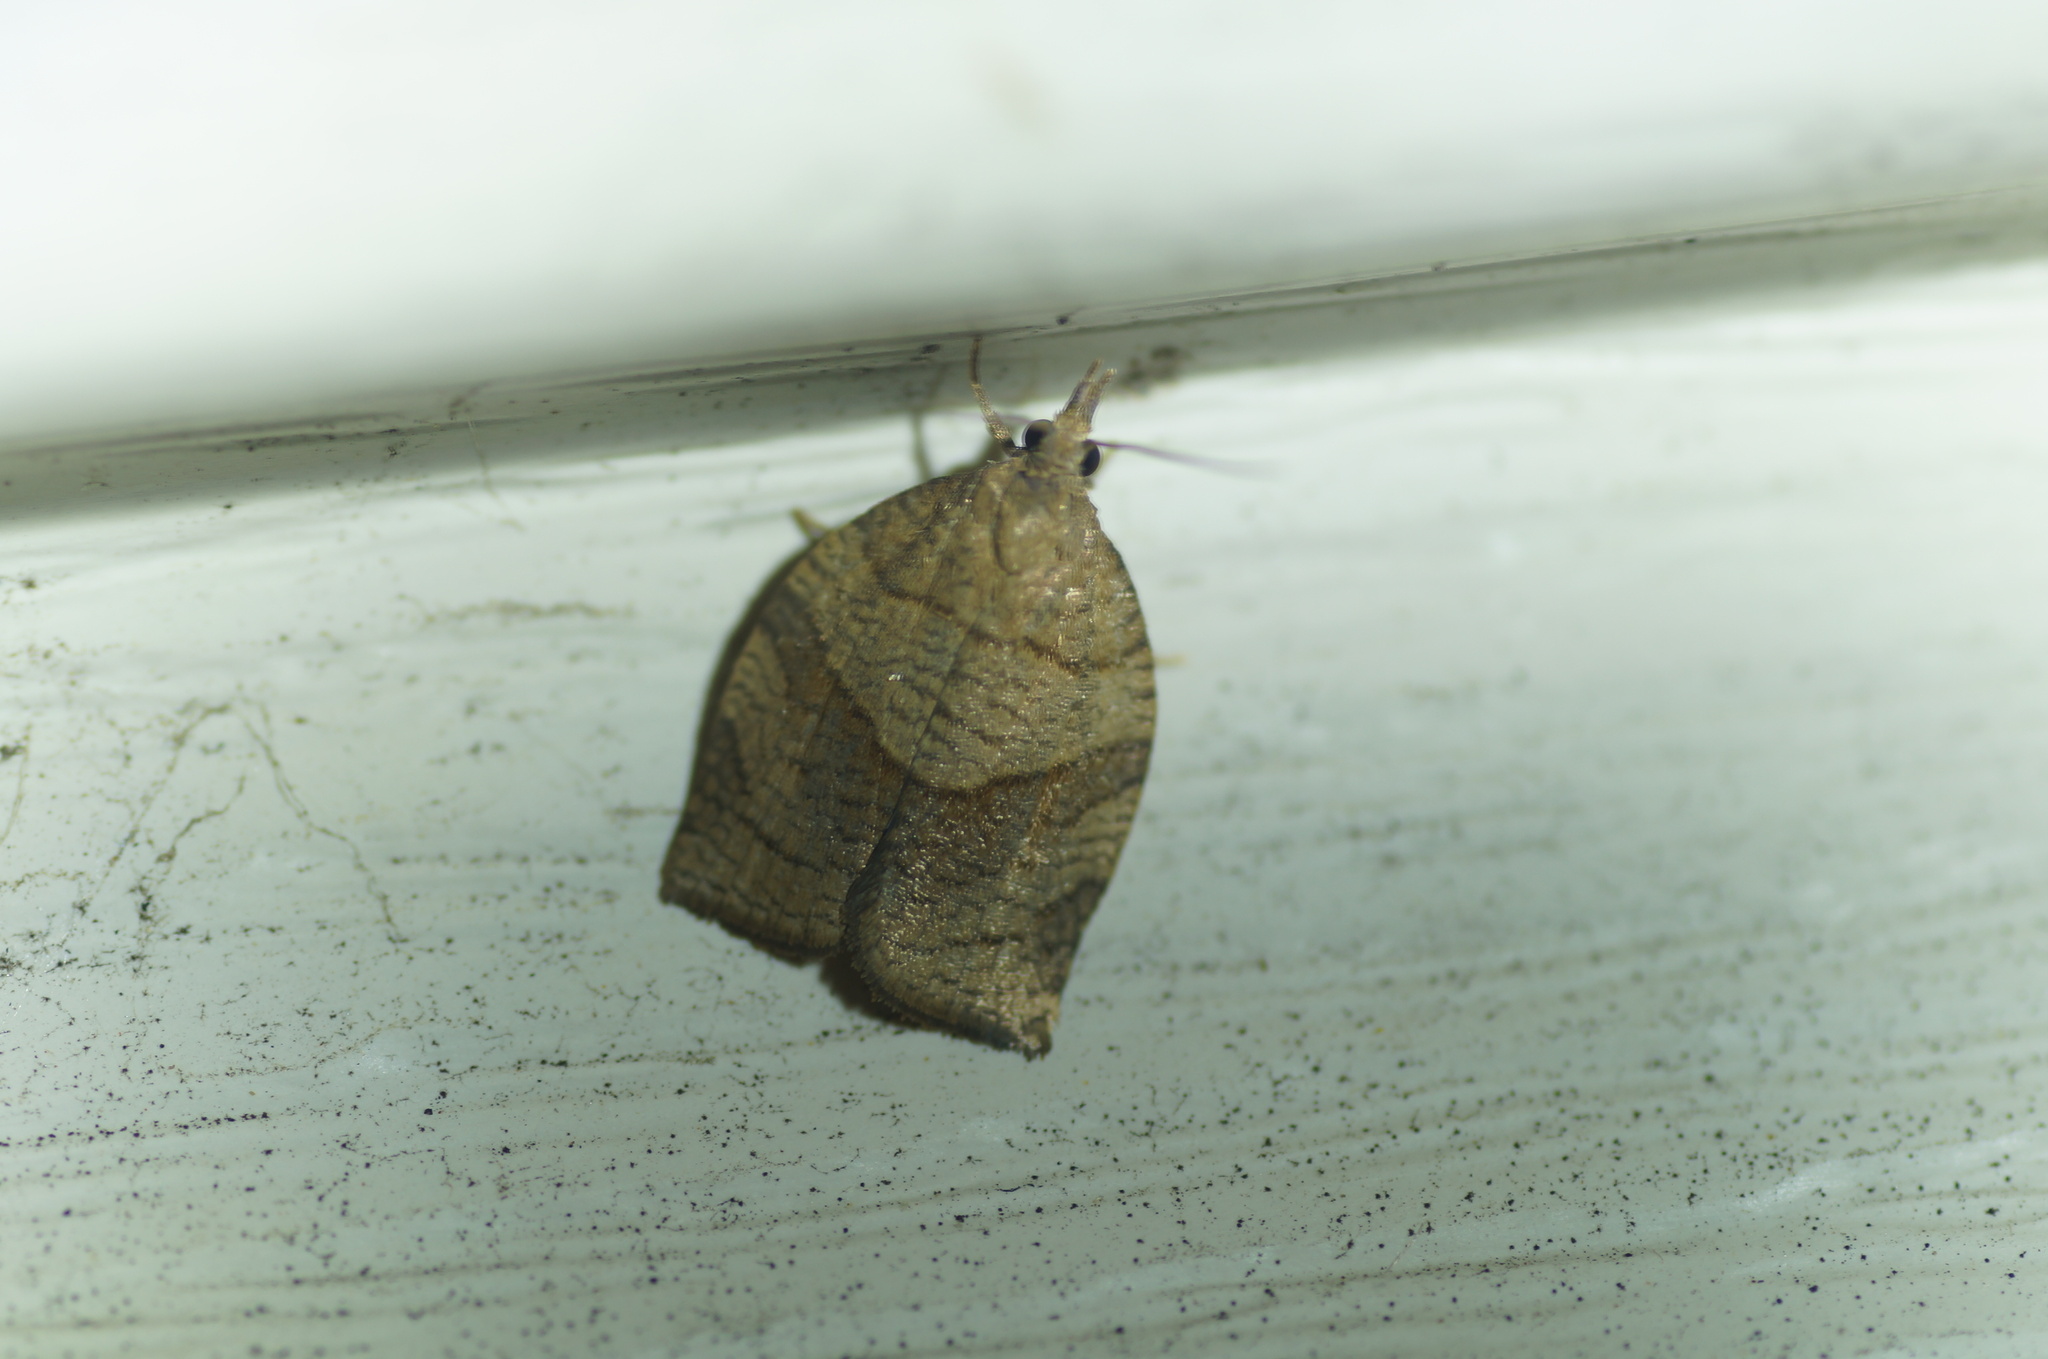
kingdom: Animalia
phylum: Arthropoda
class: Insecta
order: Lepidoptera
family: Tortricidae
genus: Pandemis
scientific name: Pandemis dumetana
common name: Thicket twist
